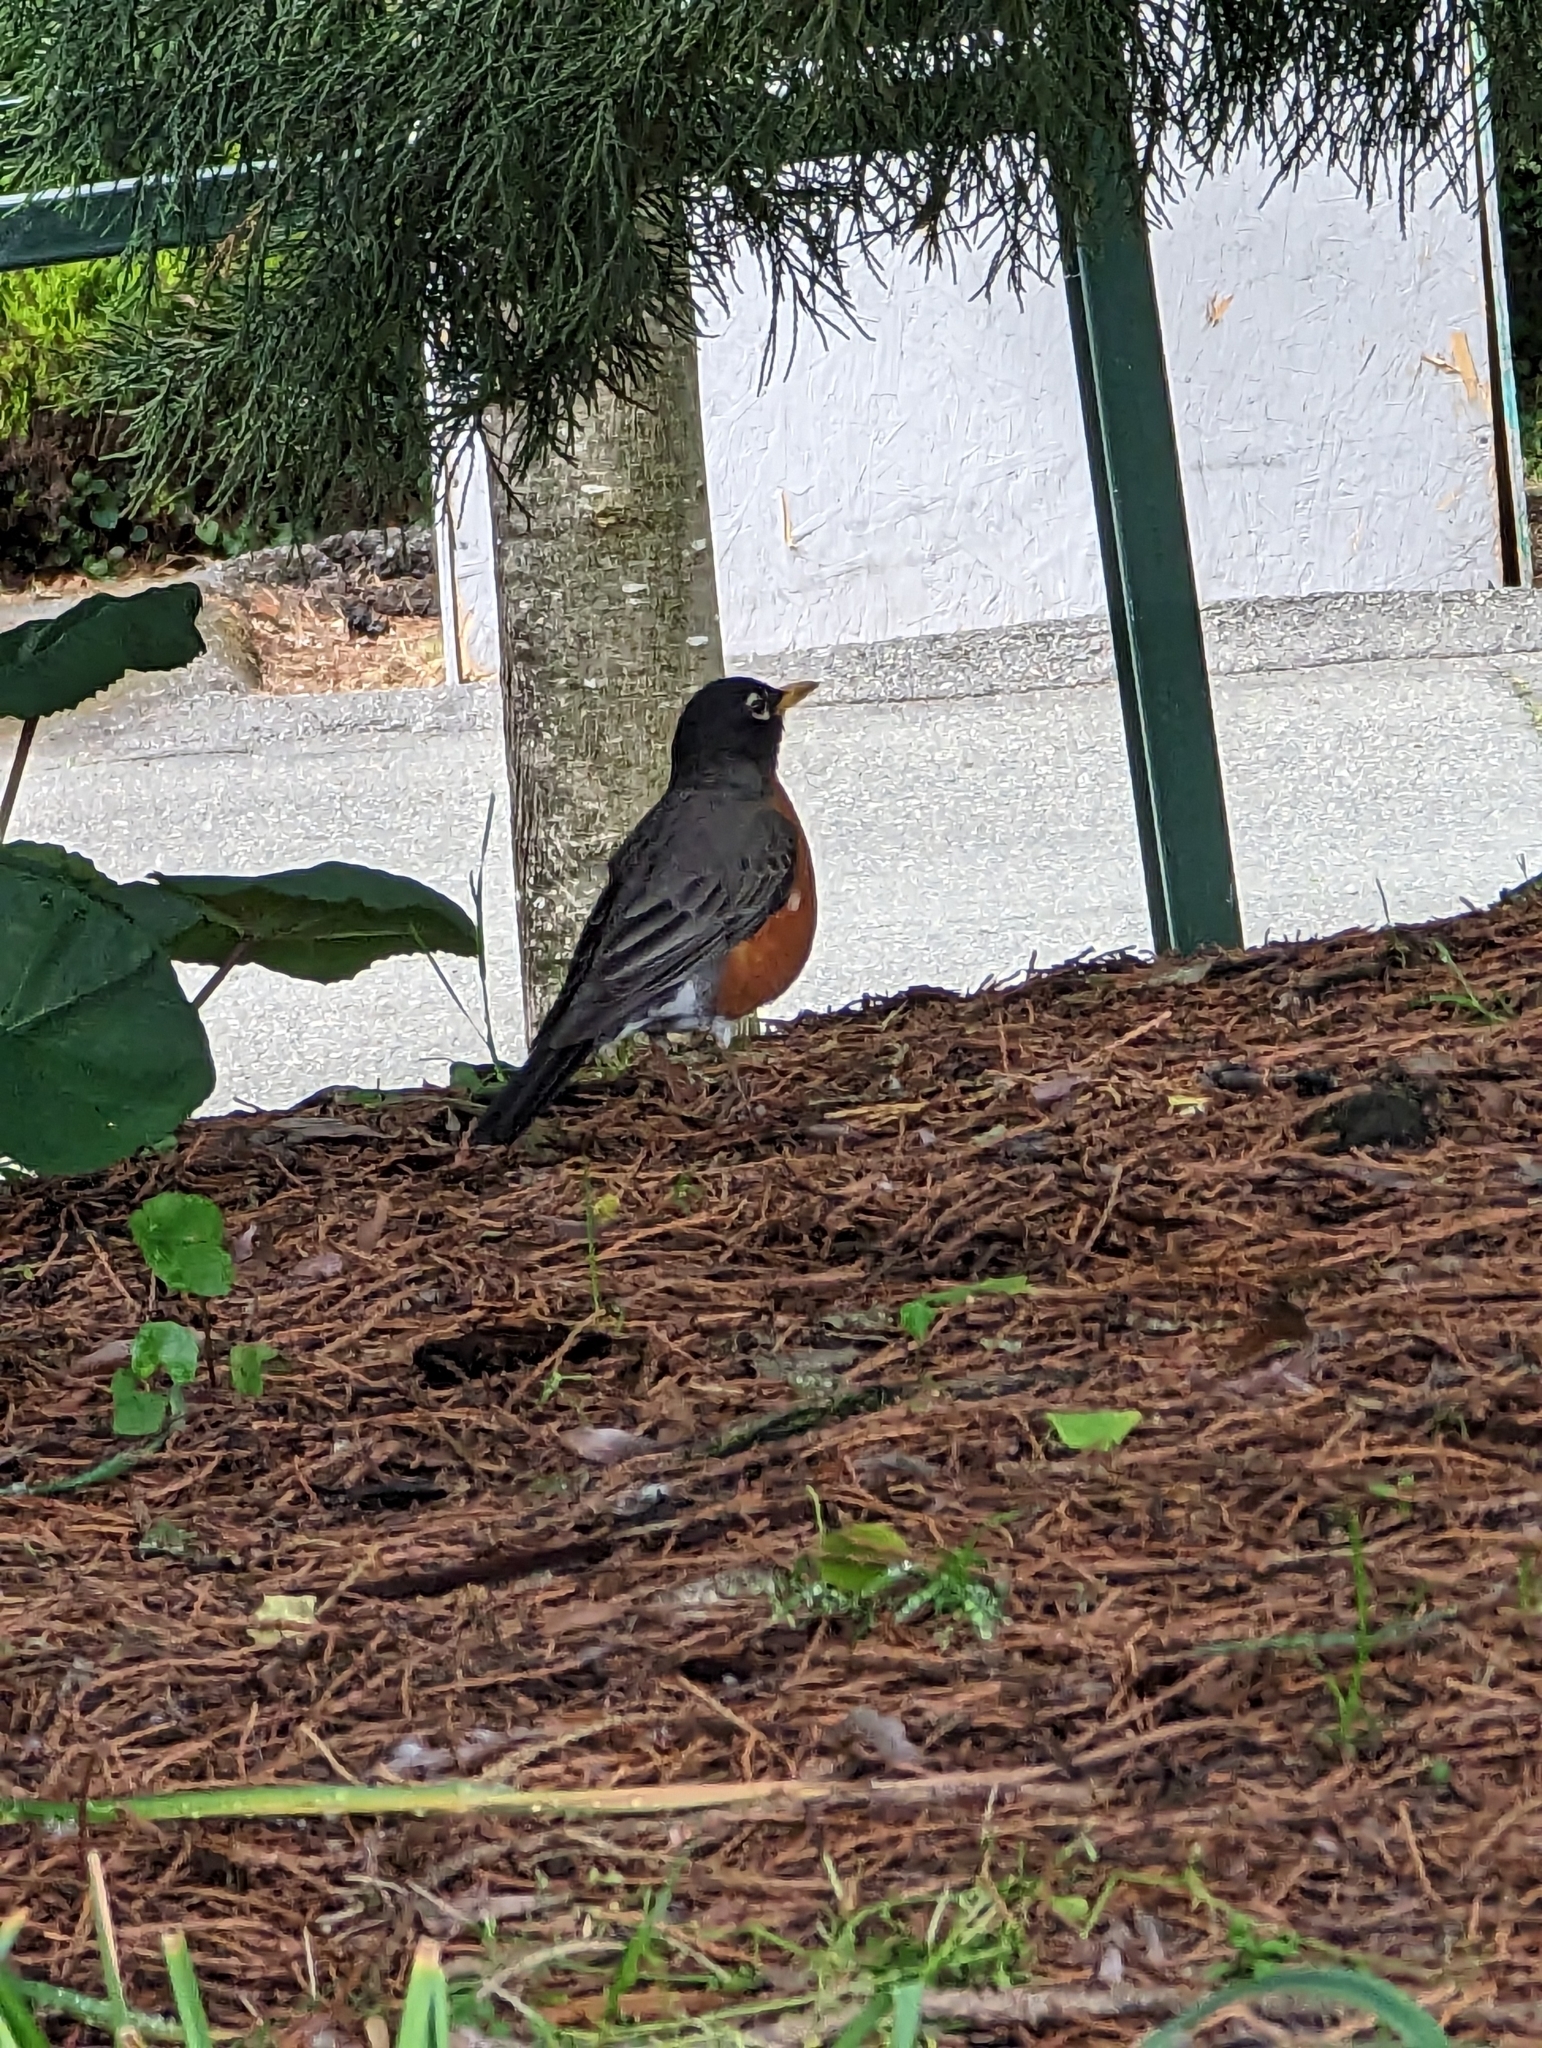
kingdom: Animalia
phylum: Chordata
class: Aves
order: Passeriformes
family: Turdidae
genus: Turdus
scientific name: Turdus migratorius
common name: American robin
